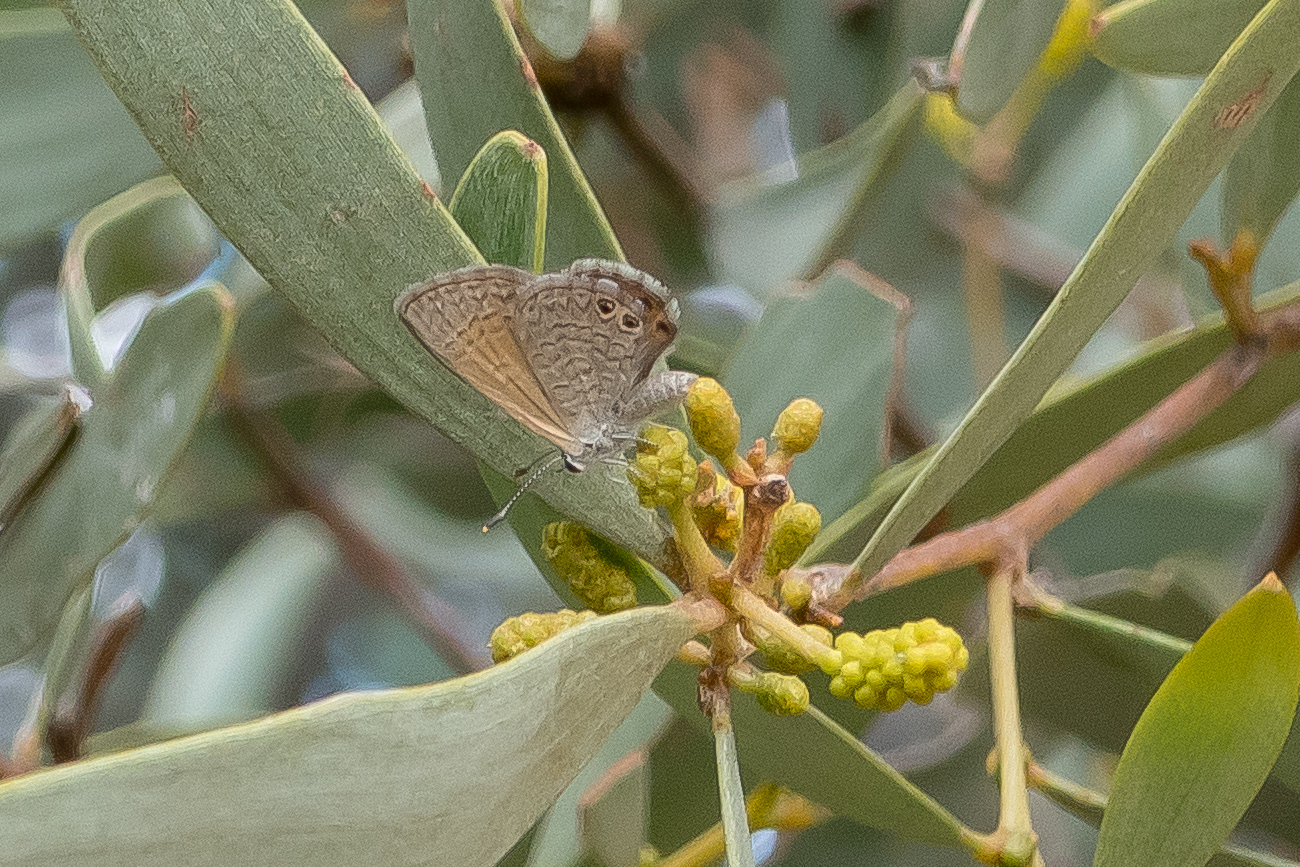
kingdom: Animalia
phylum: Arthropoda
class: Insecta
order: Lepidoptera
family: Lycaenidae
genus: Nacaduba
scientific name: Nacaduba biocellata
